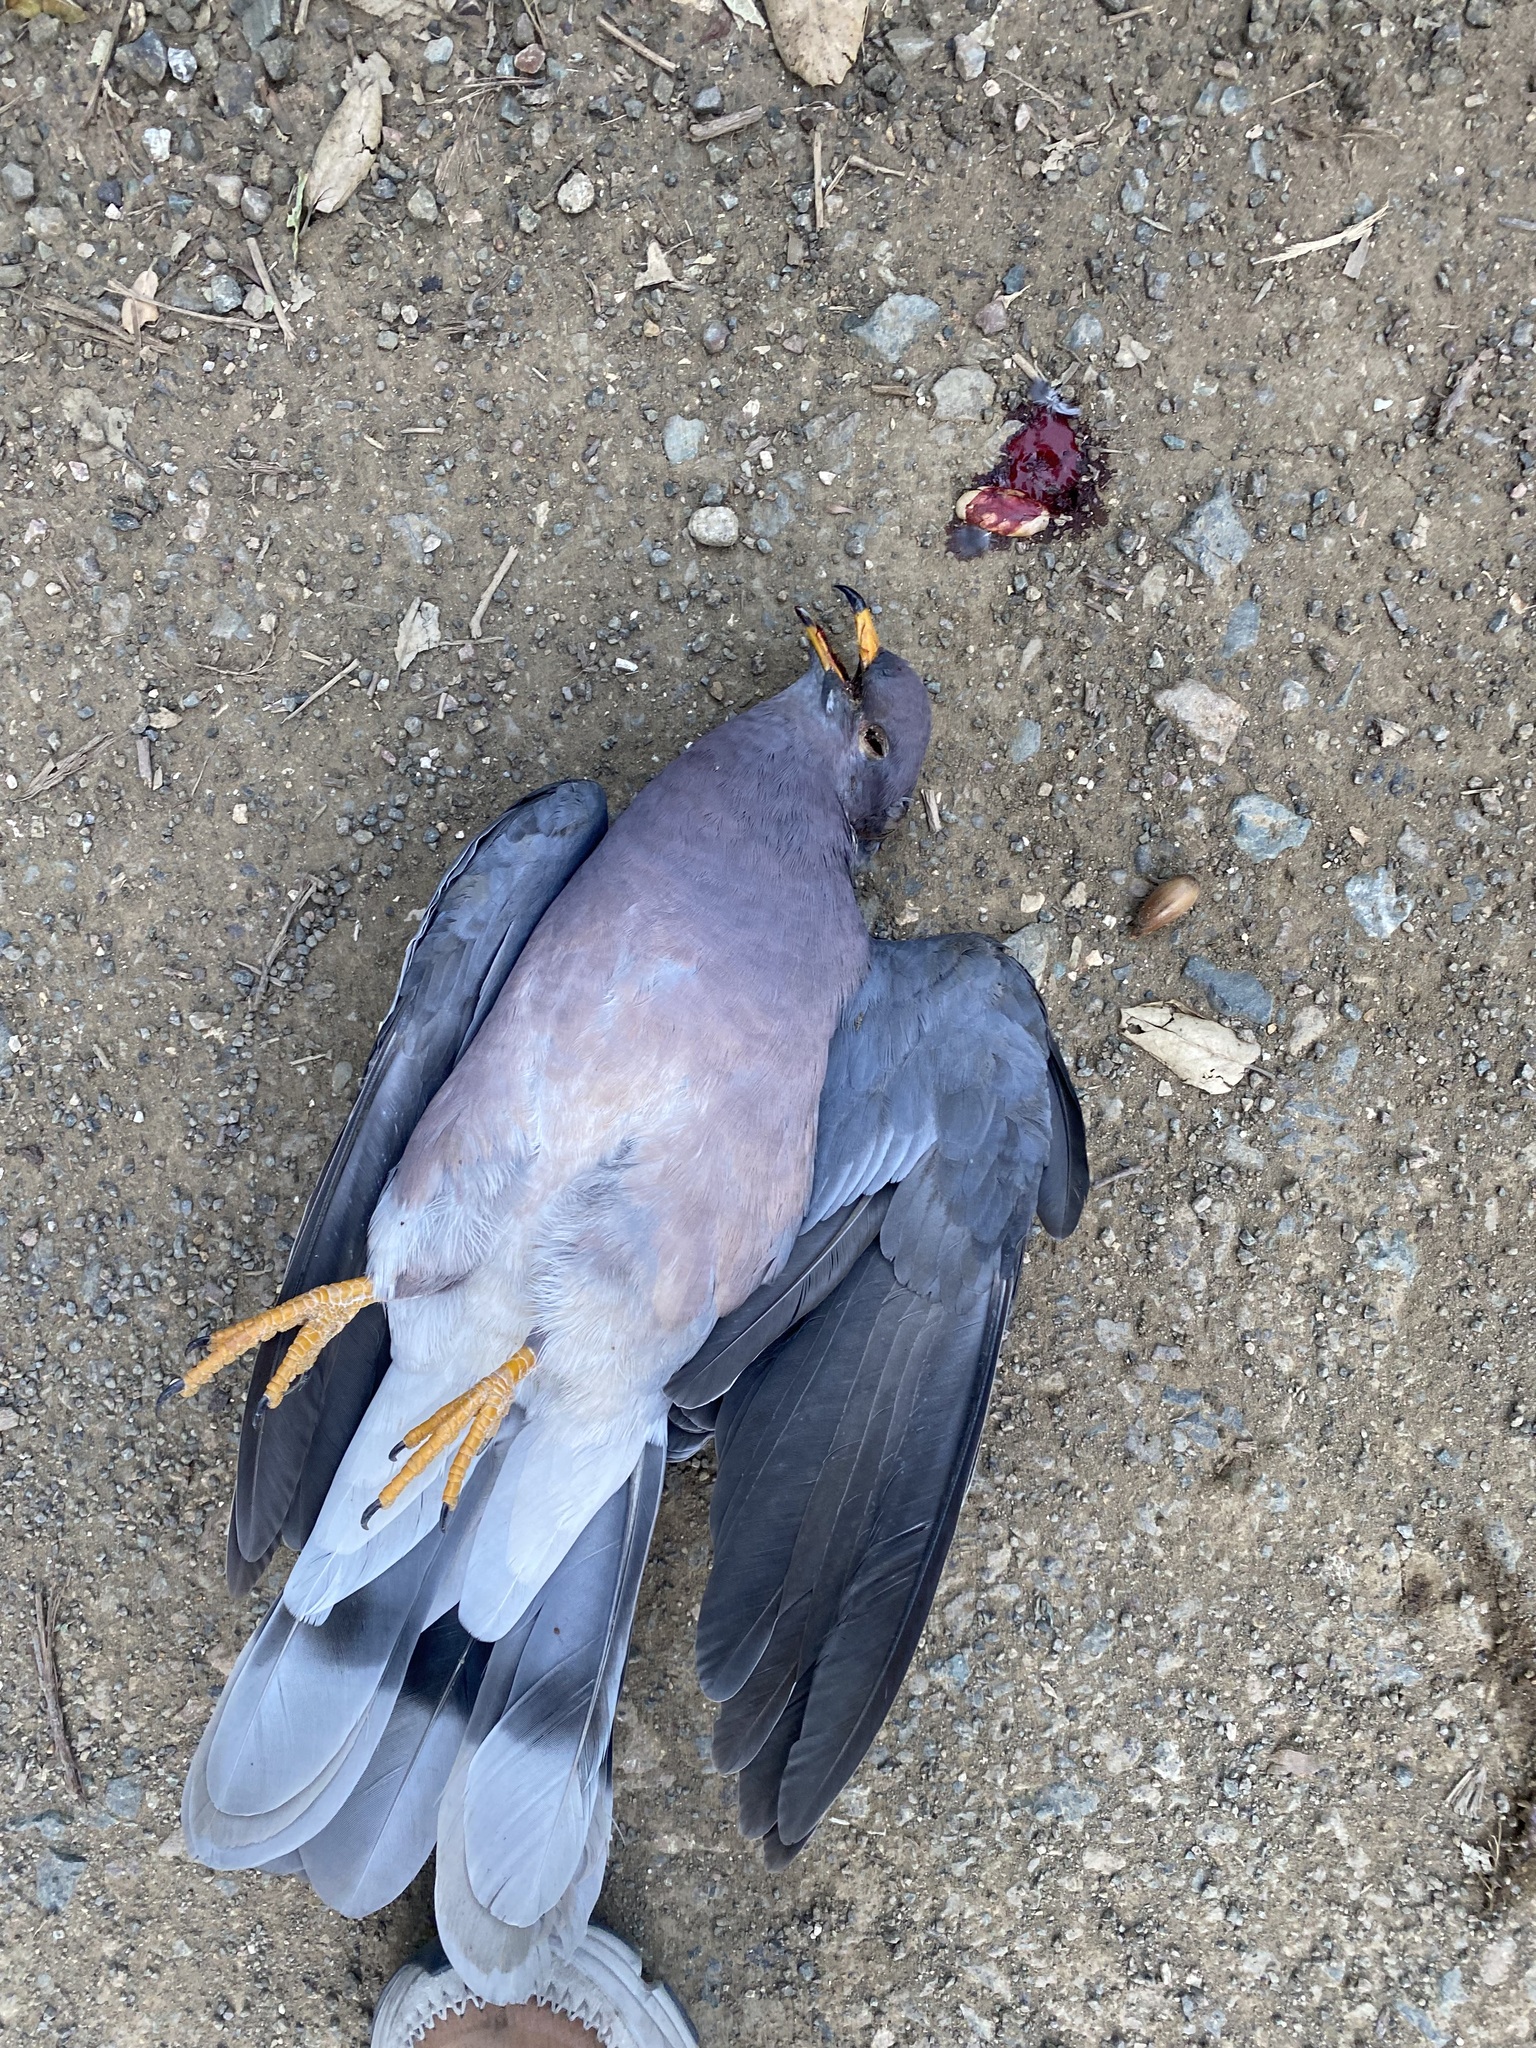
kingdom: Animalia
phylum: Chordata
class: Aves
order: Columbiformes
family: Columbidae
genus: Patagioenas
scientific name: Patagioenas fasciata
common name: Band-tailed pigeon
